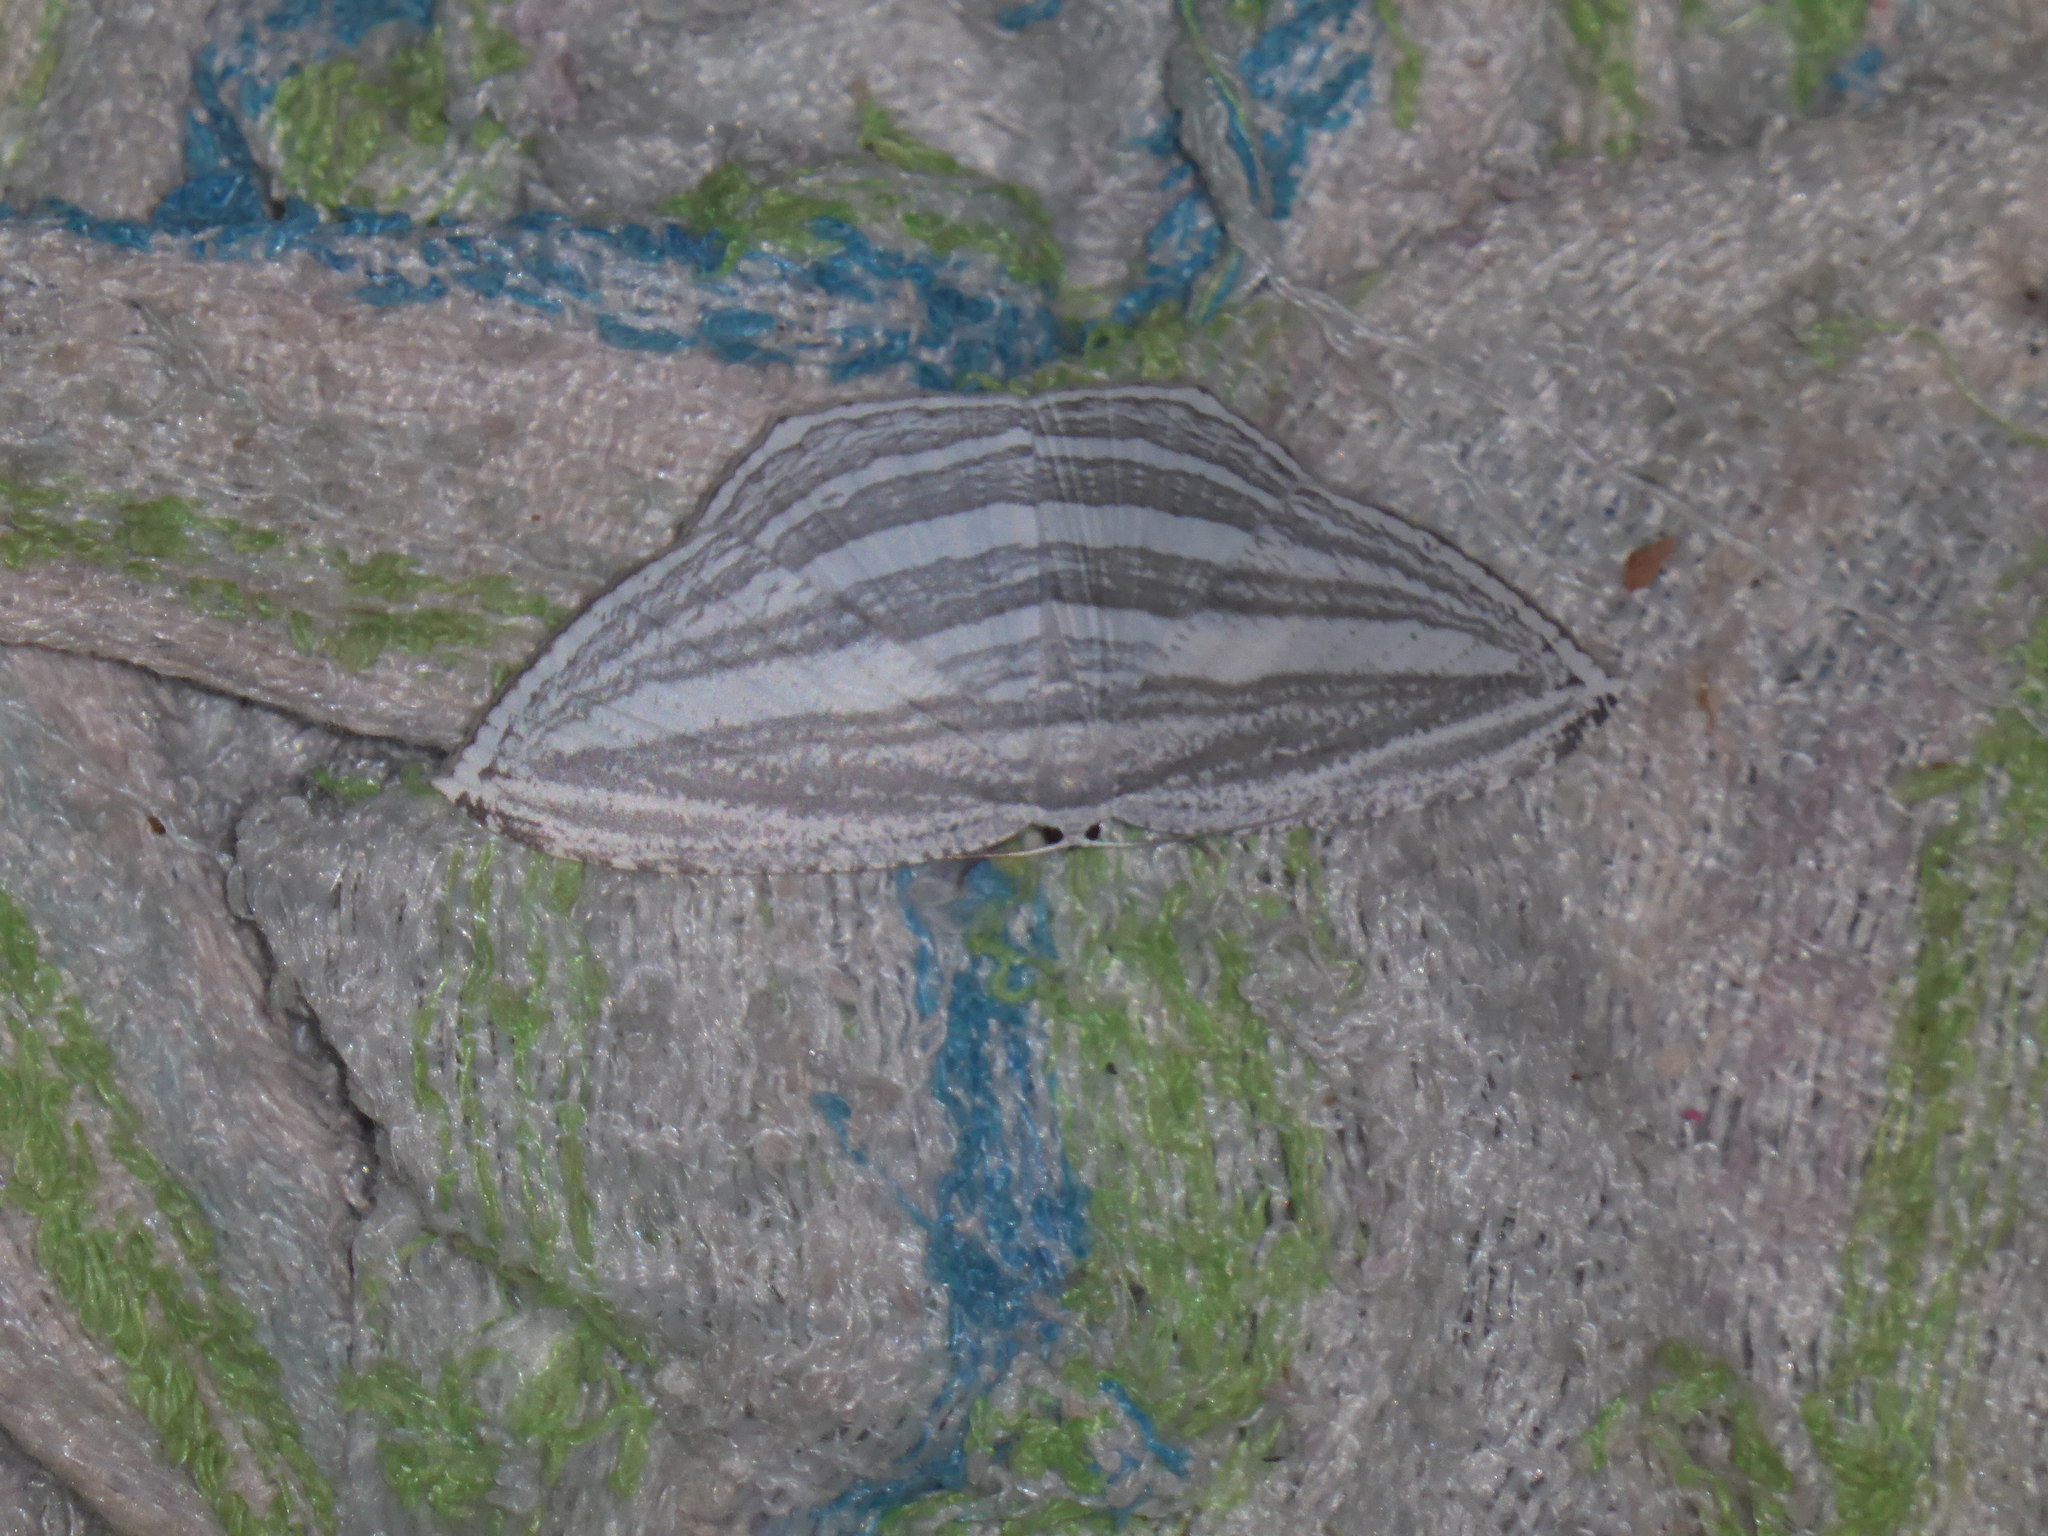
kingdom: Animalia
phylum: Arthropoda
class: Insecta
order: Lepidoptera
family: Uraniidae
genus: Acropteris
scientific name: Acropteris rectinervata
